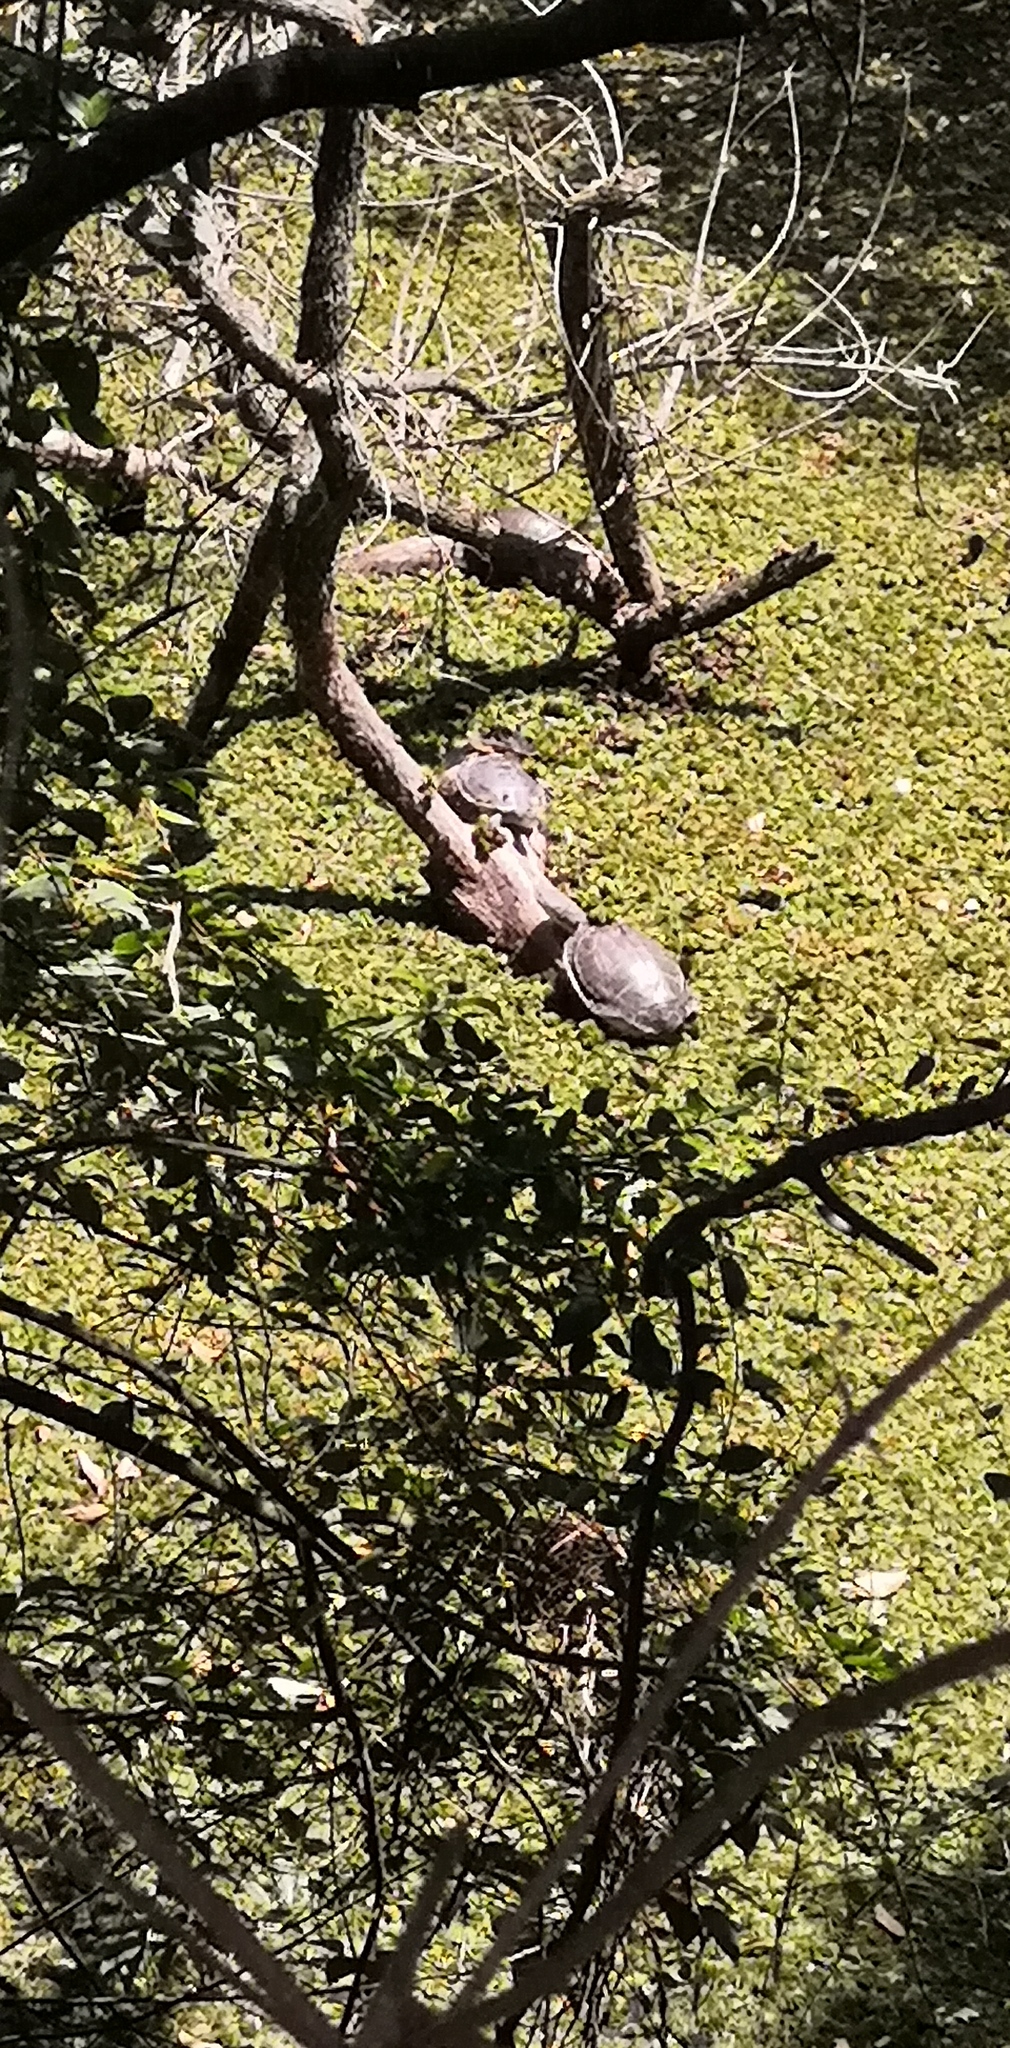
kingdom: Animalia
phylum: Chordata
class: Testudines
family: Chelidae
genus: Phrynops
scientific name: Phrynops hilarii
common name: Side-necked turtle of saint hillaire
